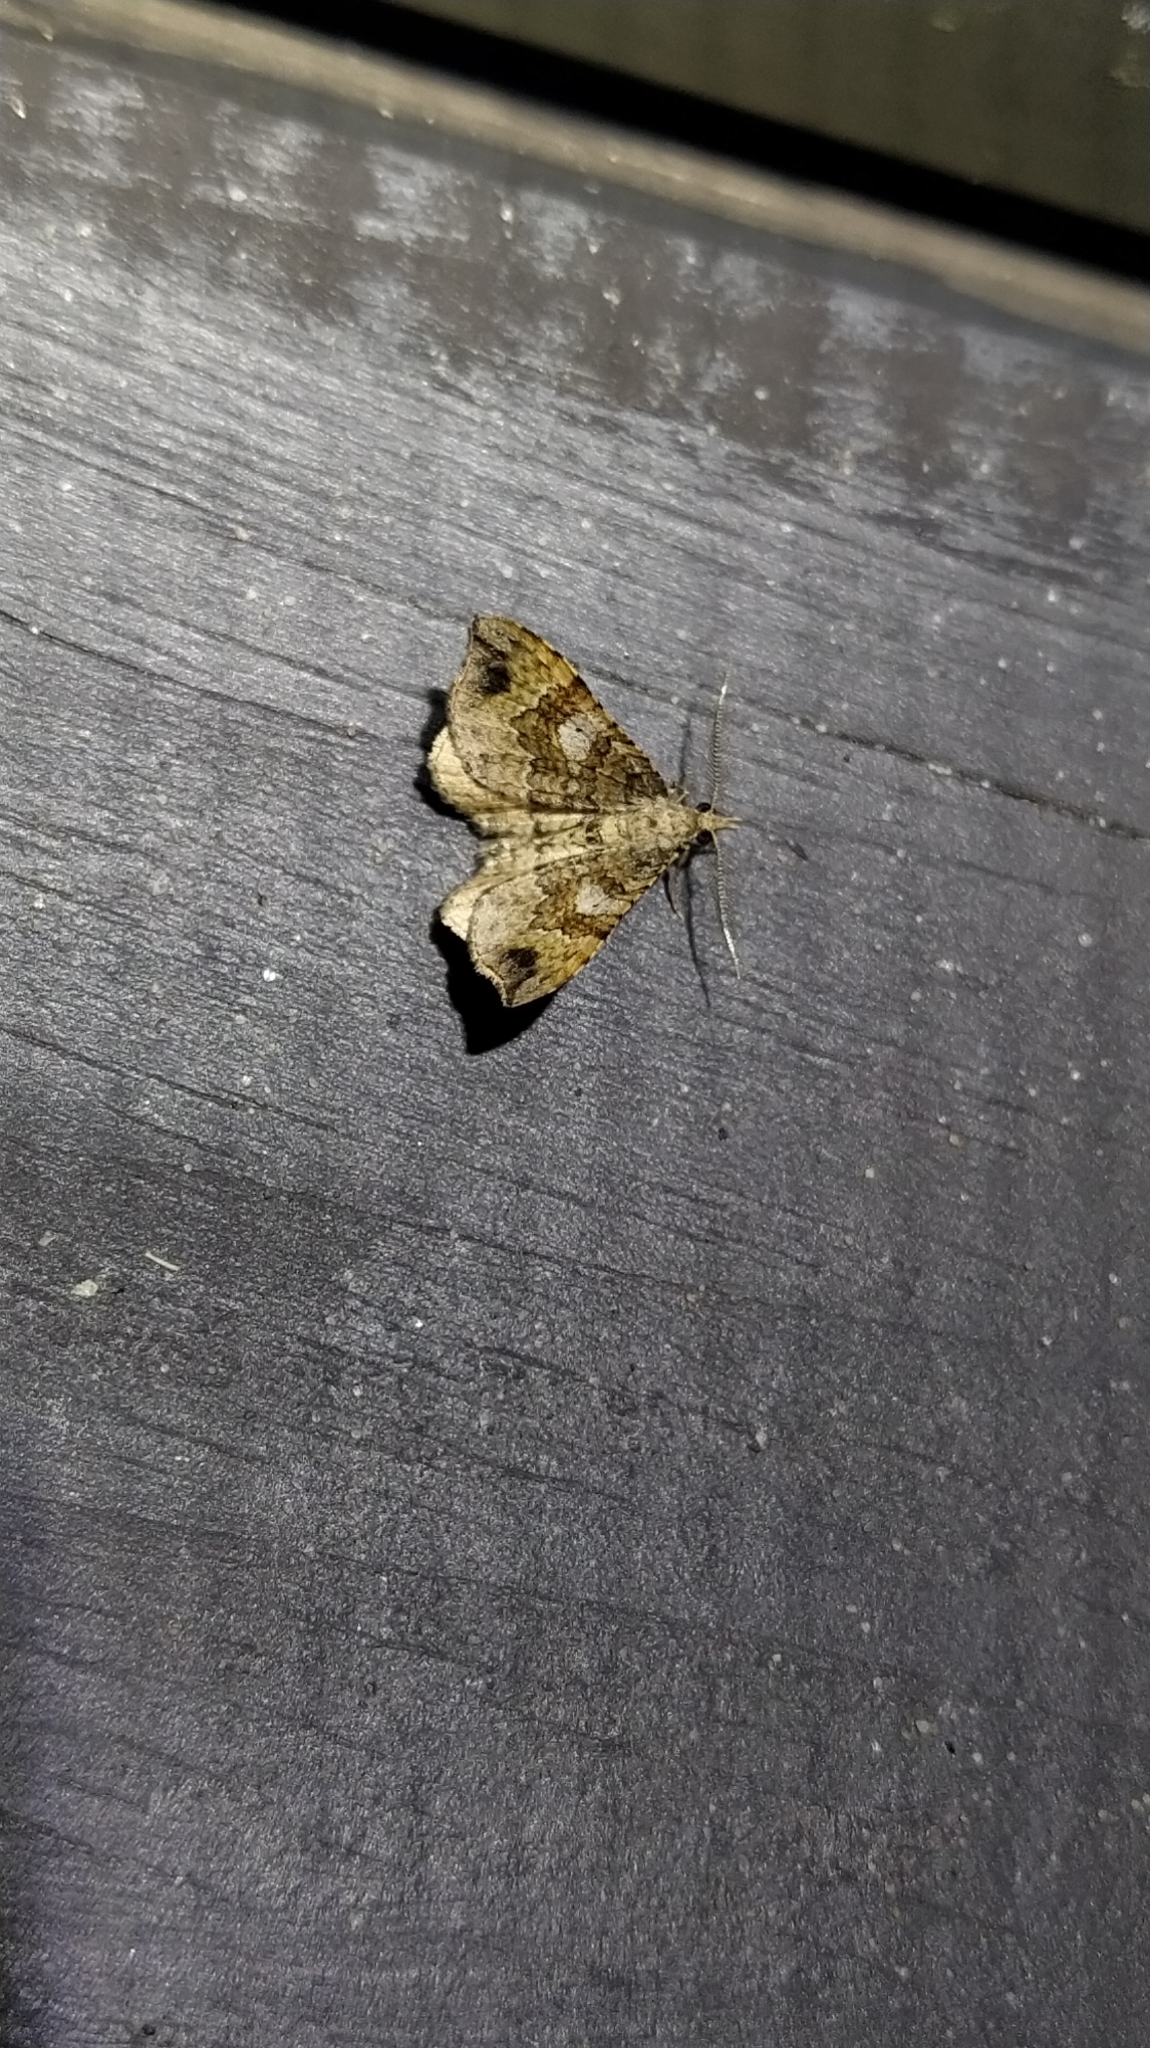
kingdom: Animalia
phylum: Arthropoda
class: Insecta
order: Lepidoptera
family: Geometridae
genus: Homodotis
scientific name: Homodotis megaspilata
